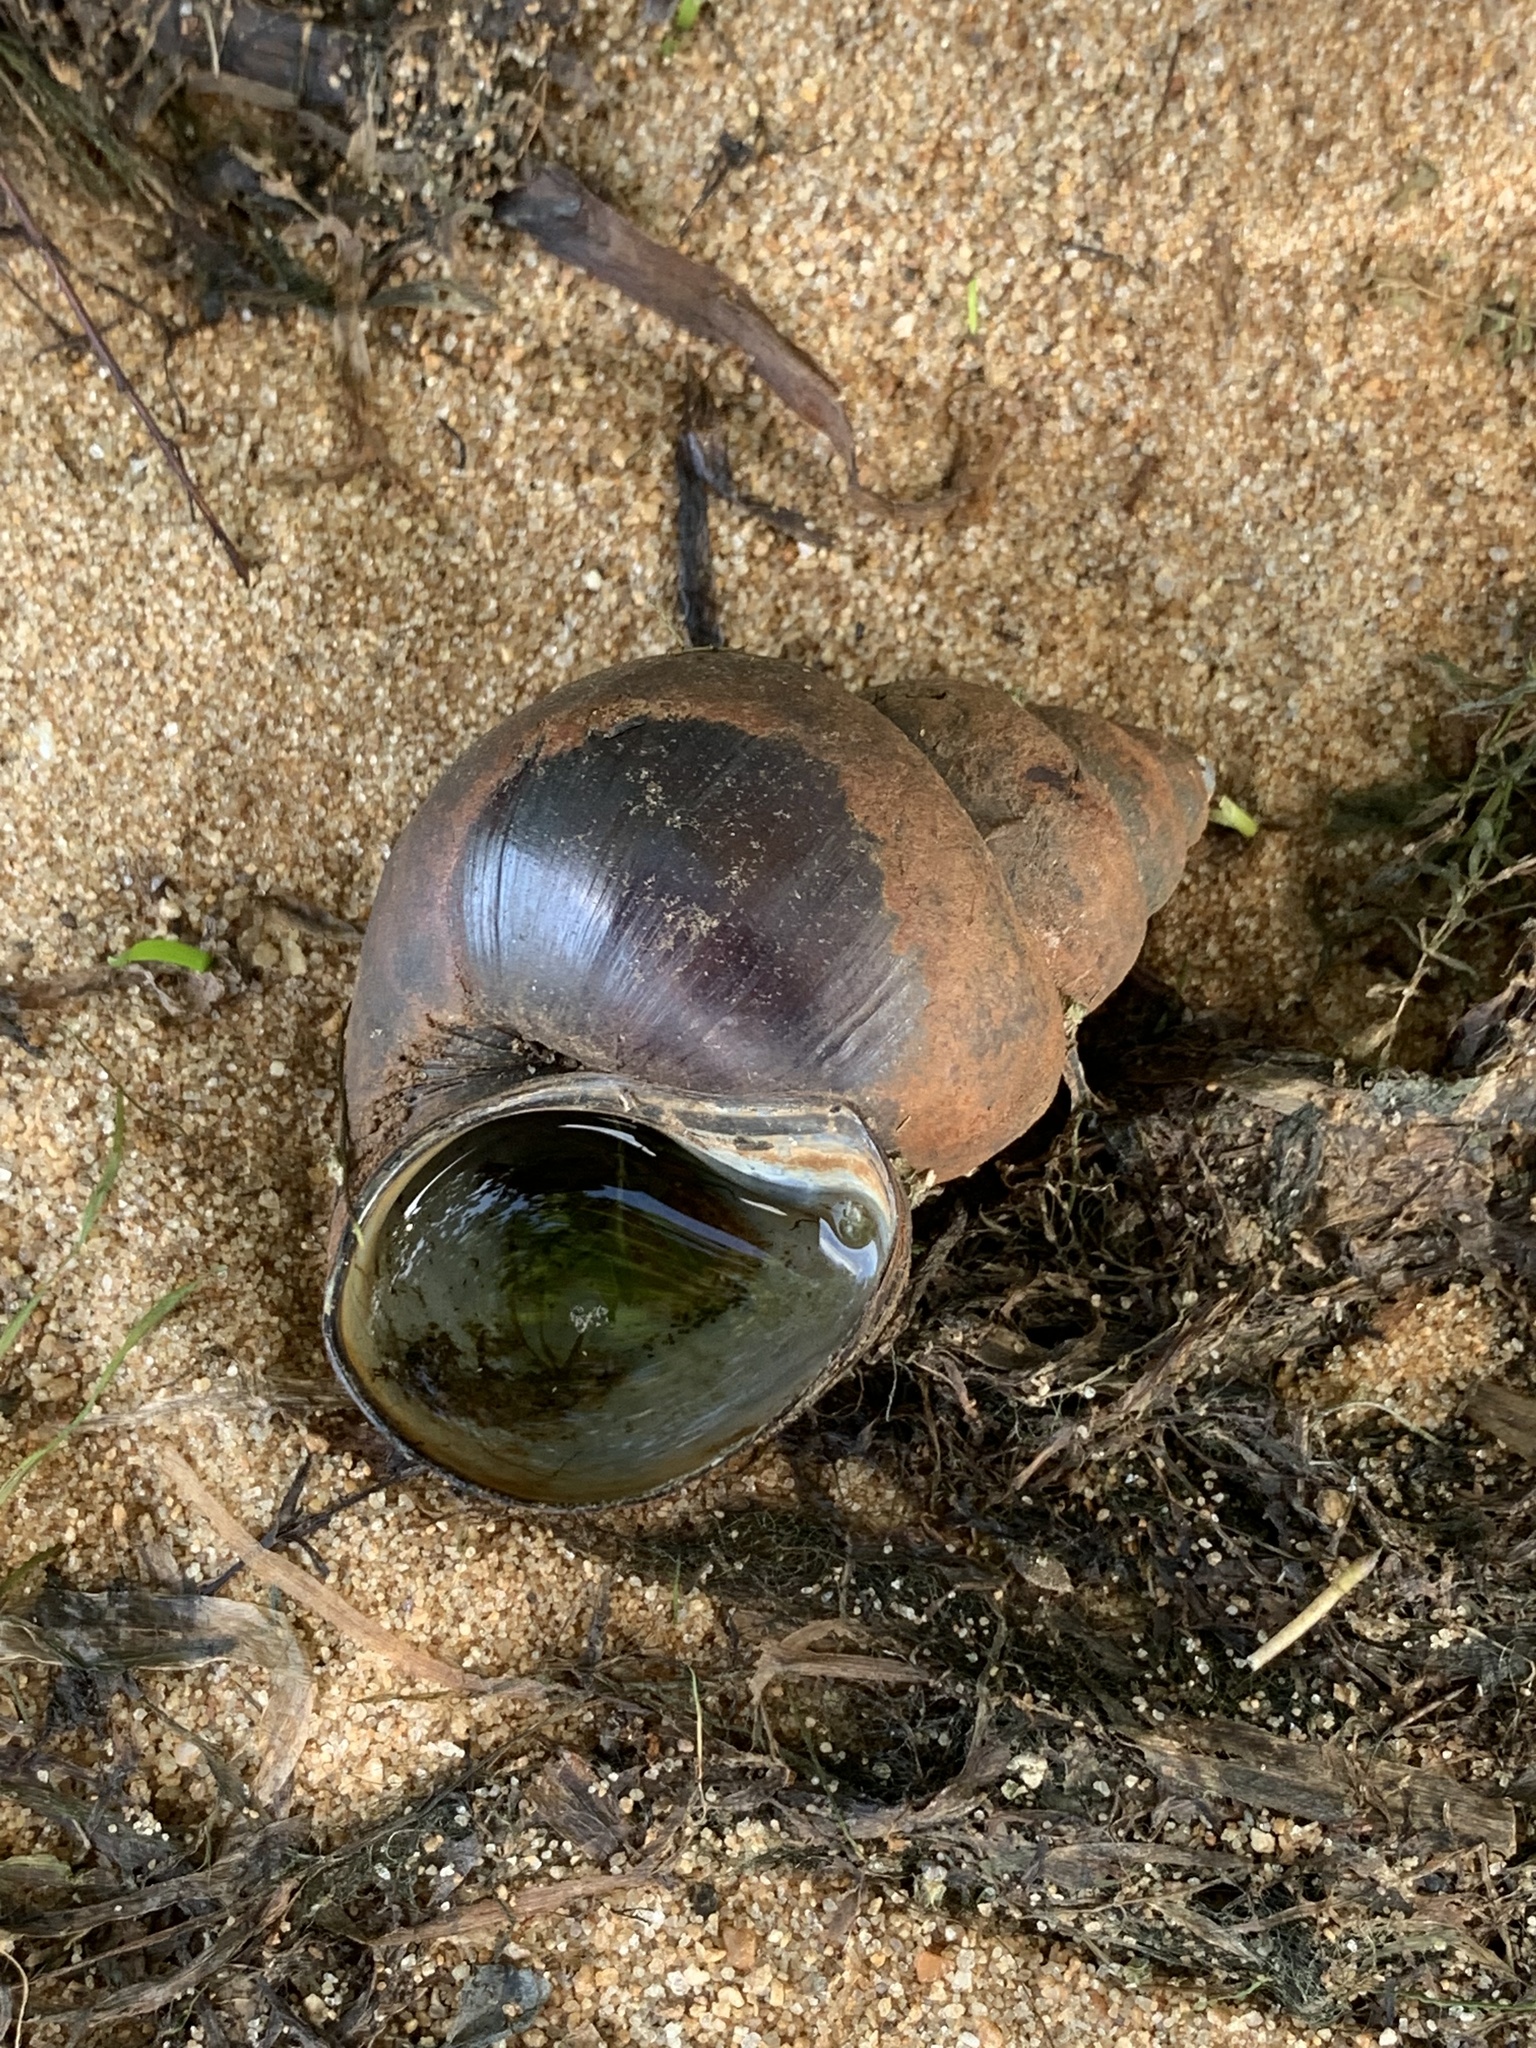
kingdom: Animalia
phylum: Mollusca
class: Gastropoda
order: Architaenioglossa
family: Viviparidae
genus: Cipangopaludina
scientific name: Cipangopaludina chinensis
